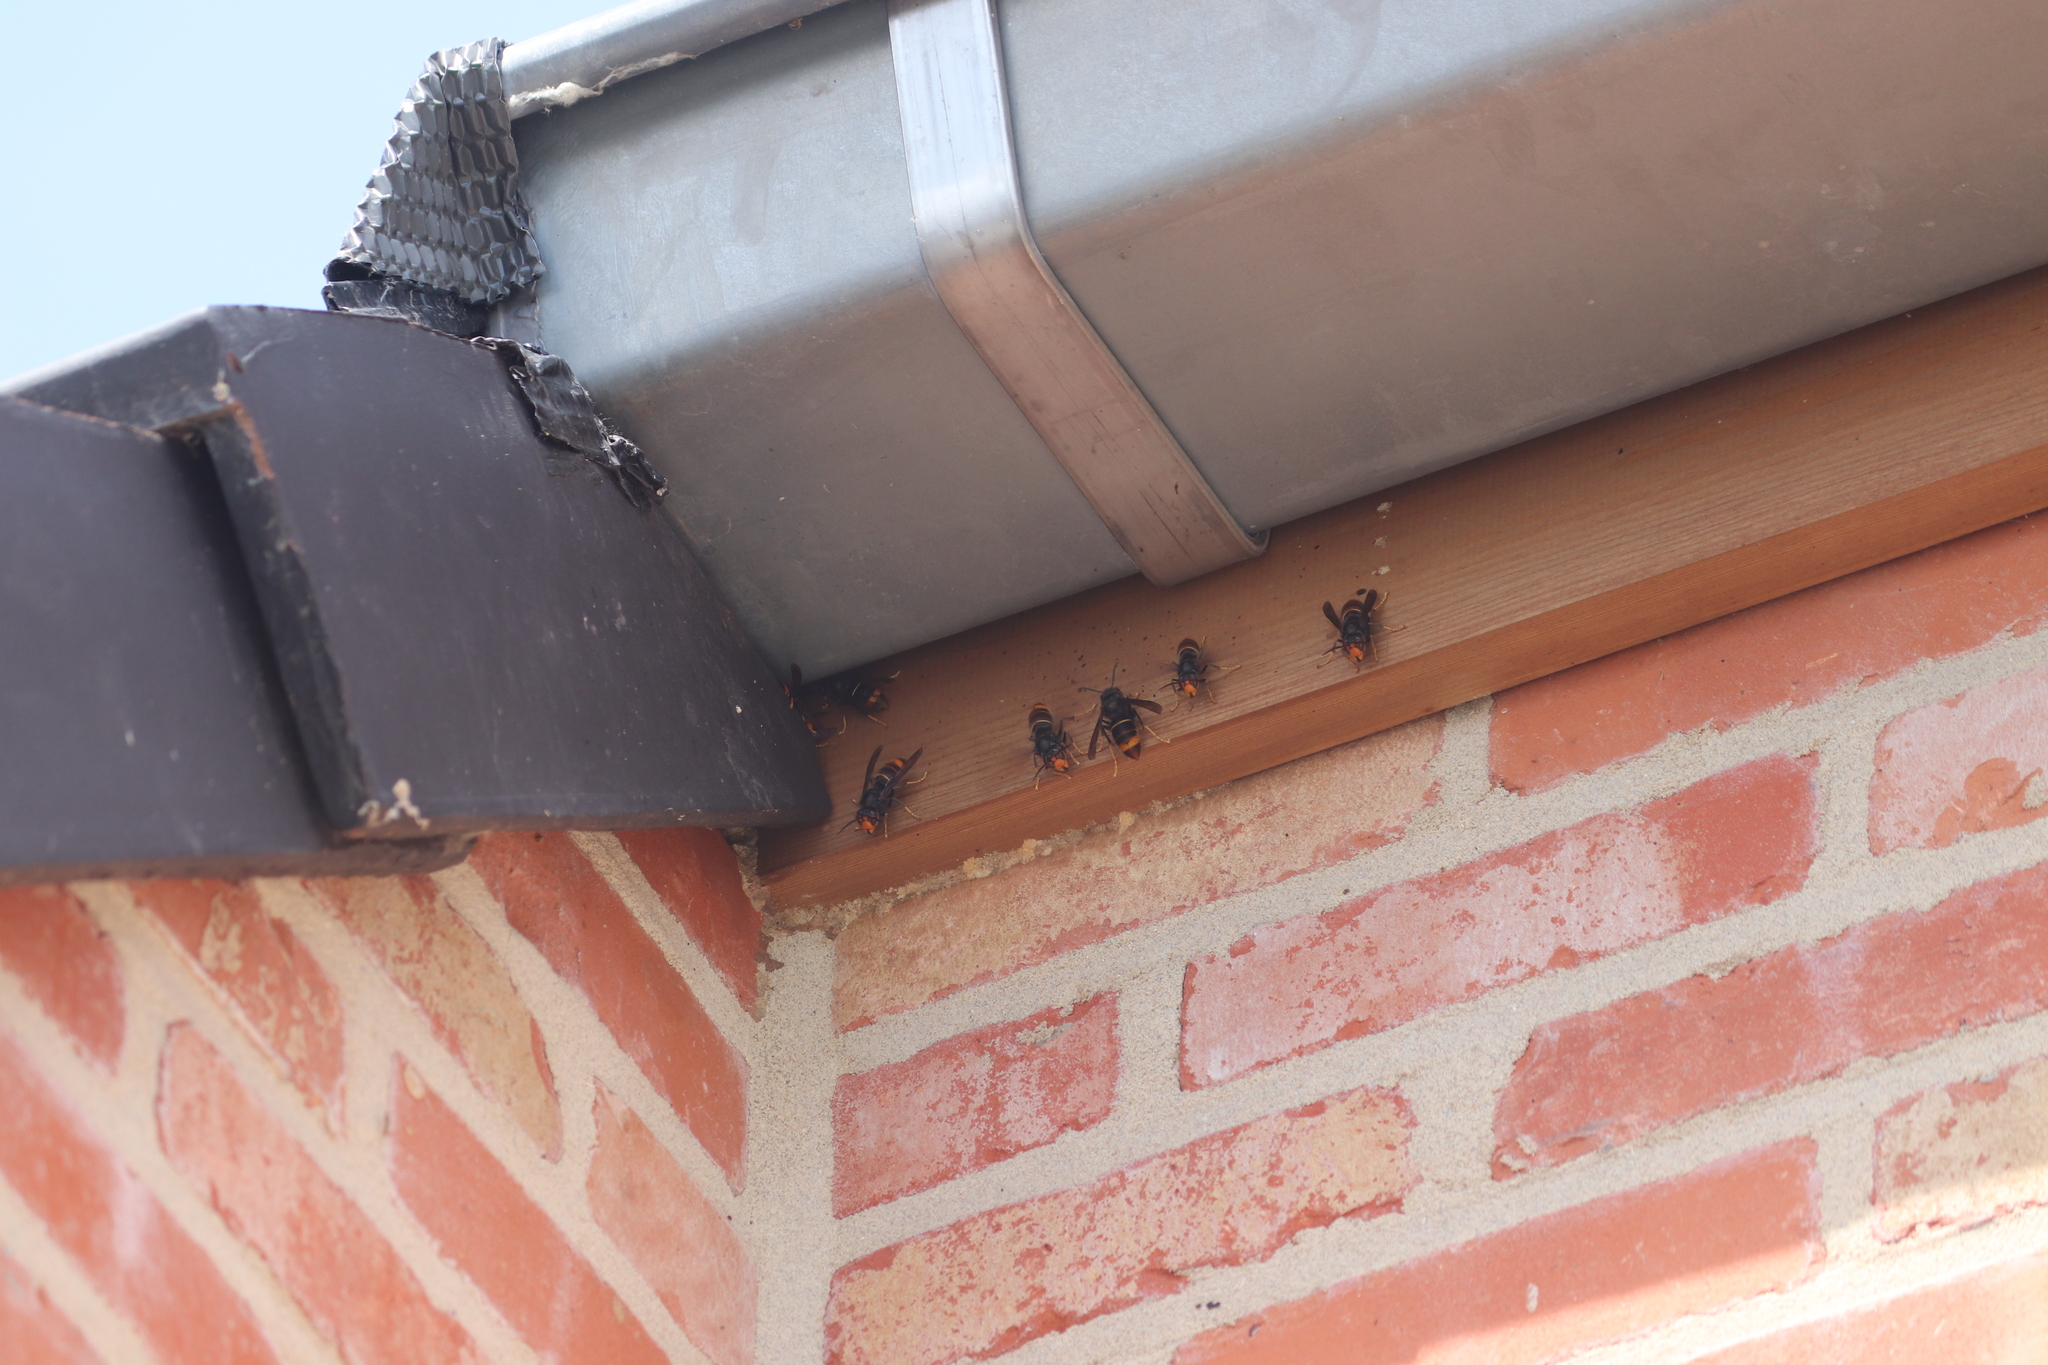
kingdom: Animalia
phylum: Arthropoda
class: Insecta
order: Hymenoptera
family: Vespidae
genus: Vespa
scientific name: Vespa velutina
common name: Asian hornet
